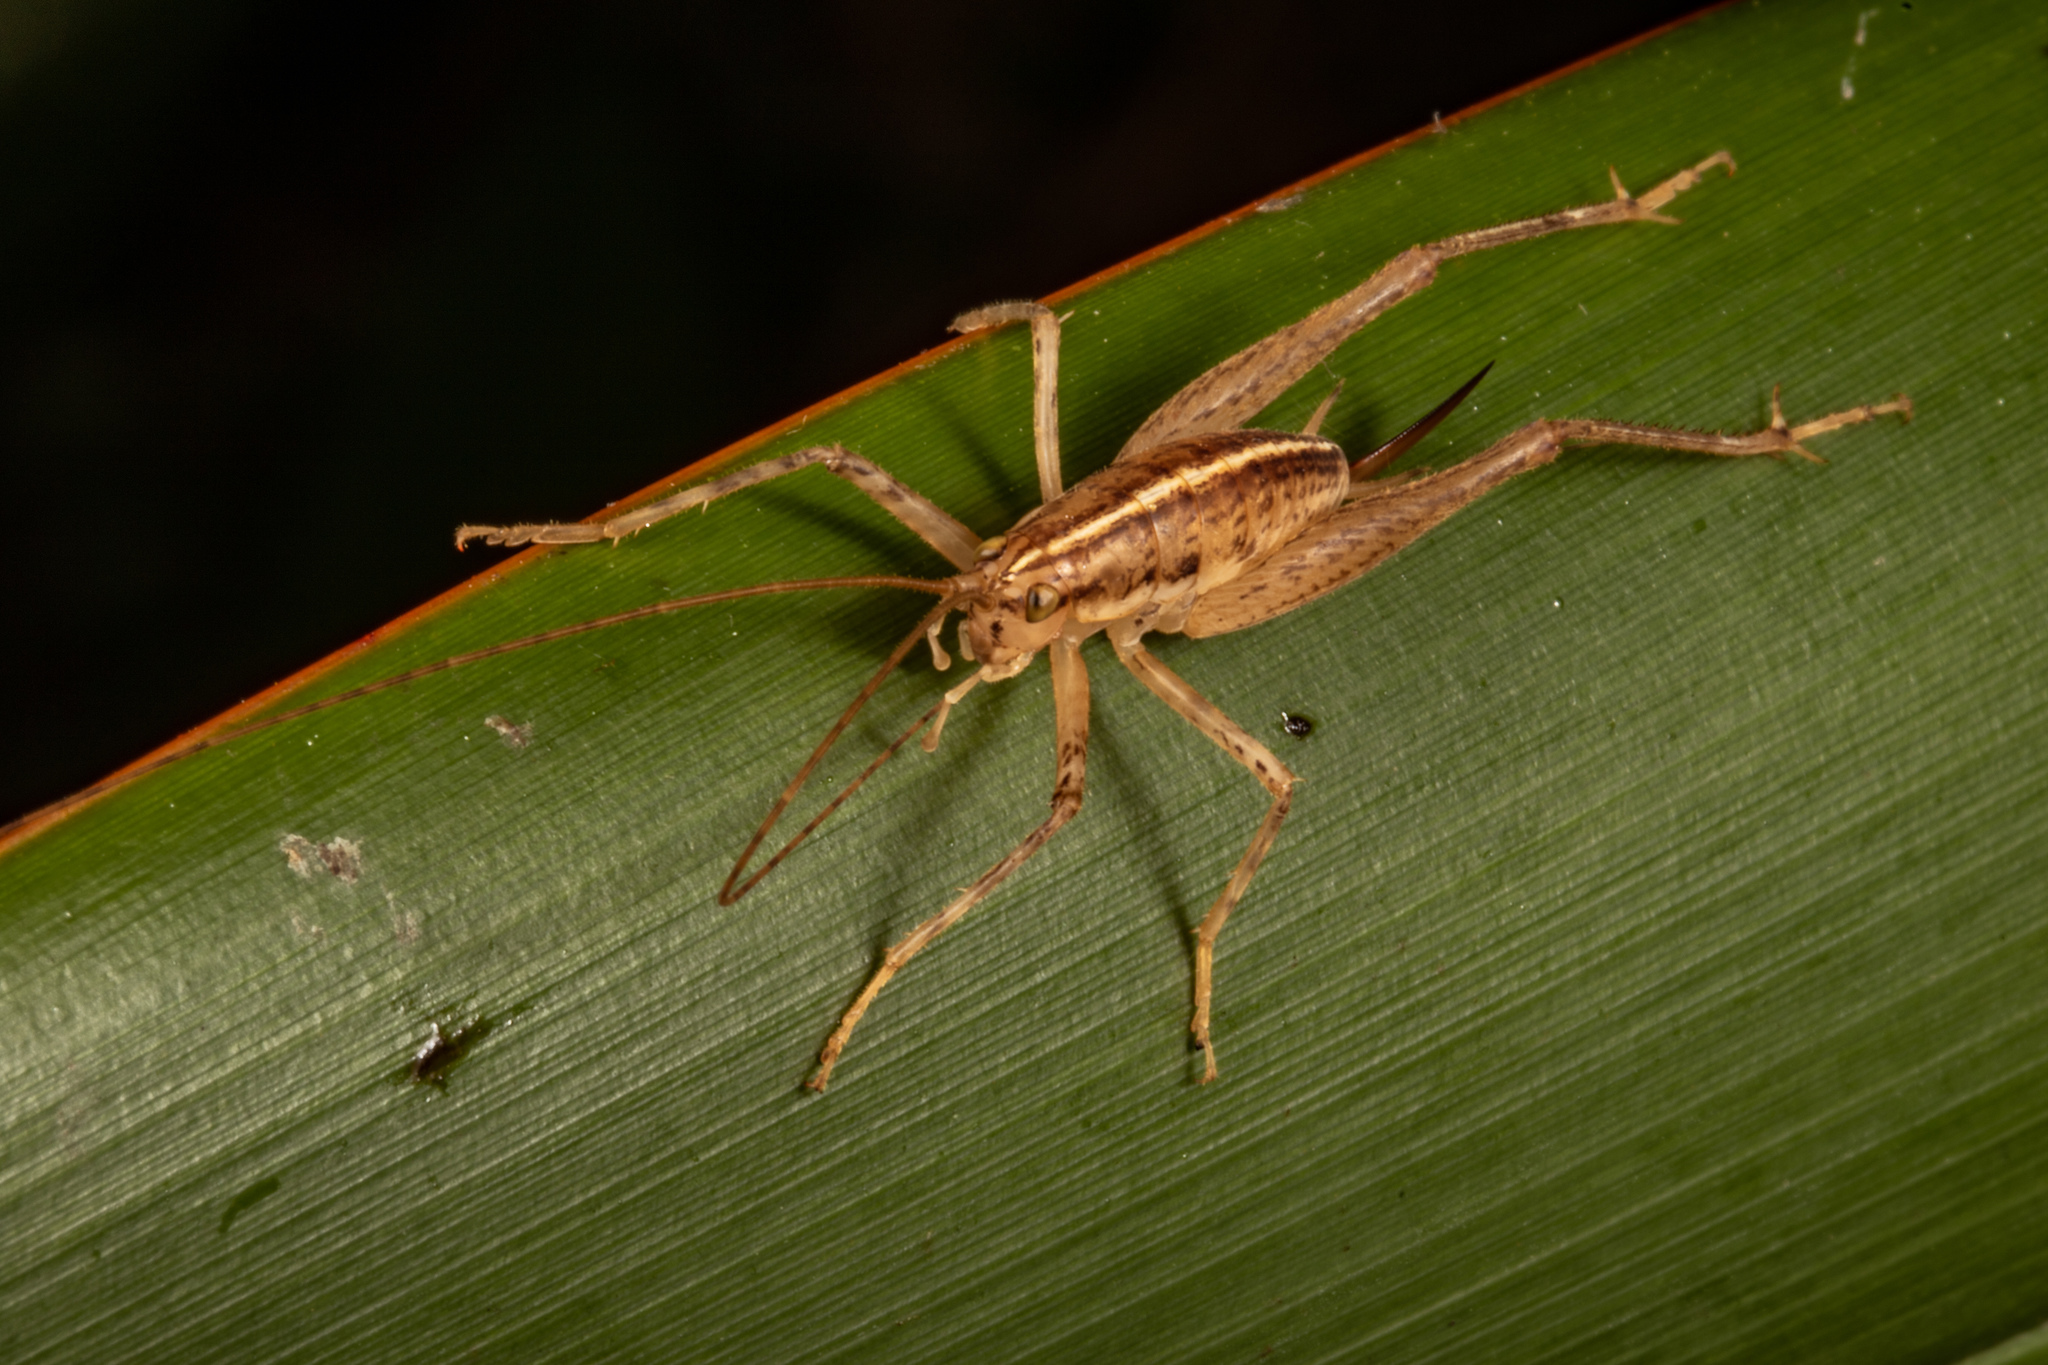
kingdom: Animalia
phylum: Arthropoda
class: Insecta
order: Orthoptera
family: Rhaphidophoridae
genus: Talitropsis
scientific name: Talitropsis poduroides
